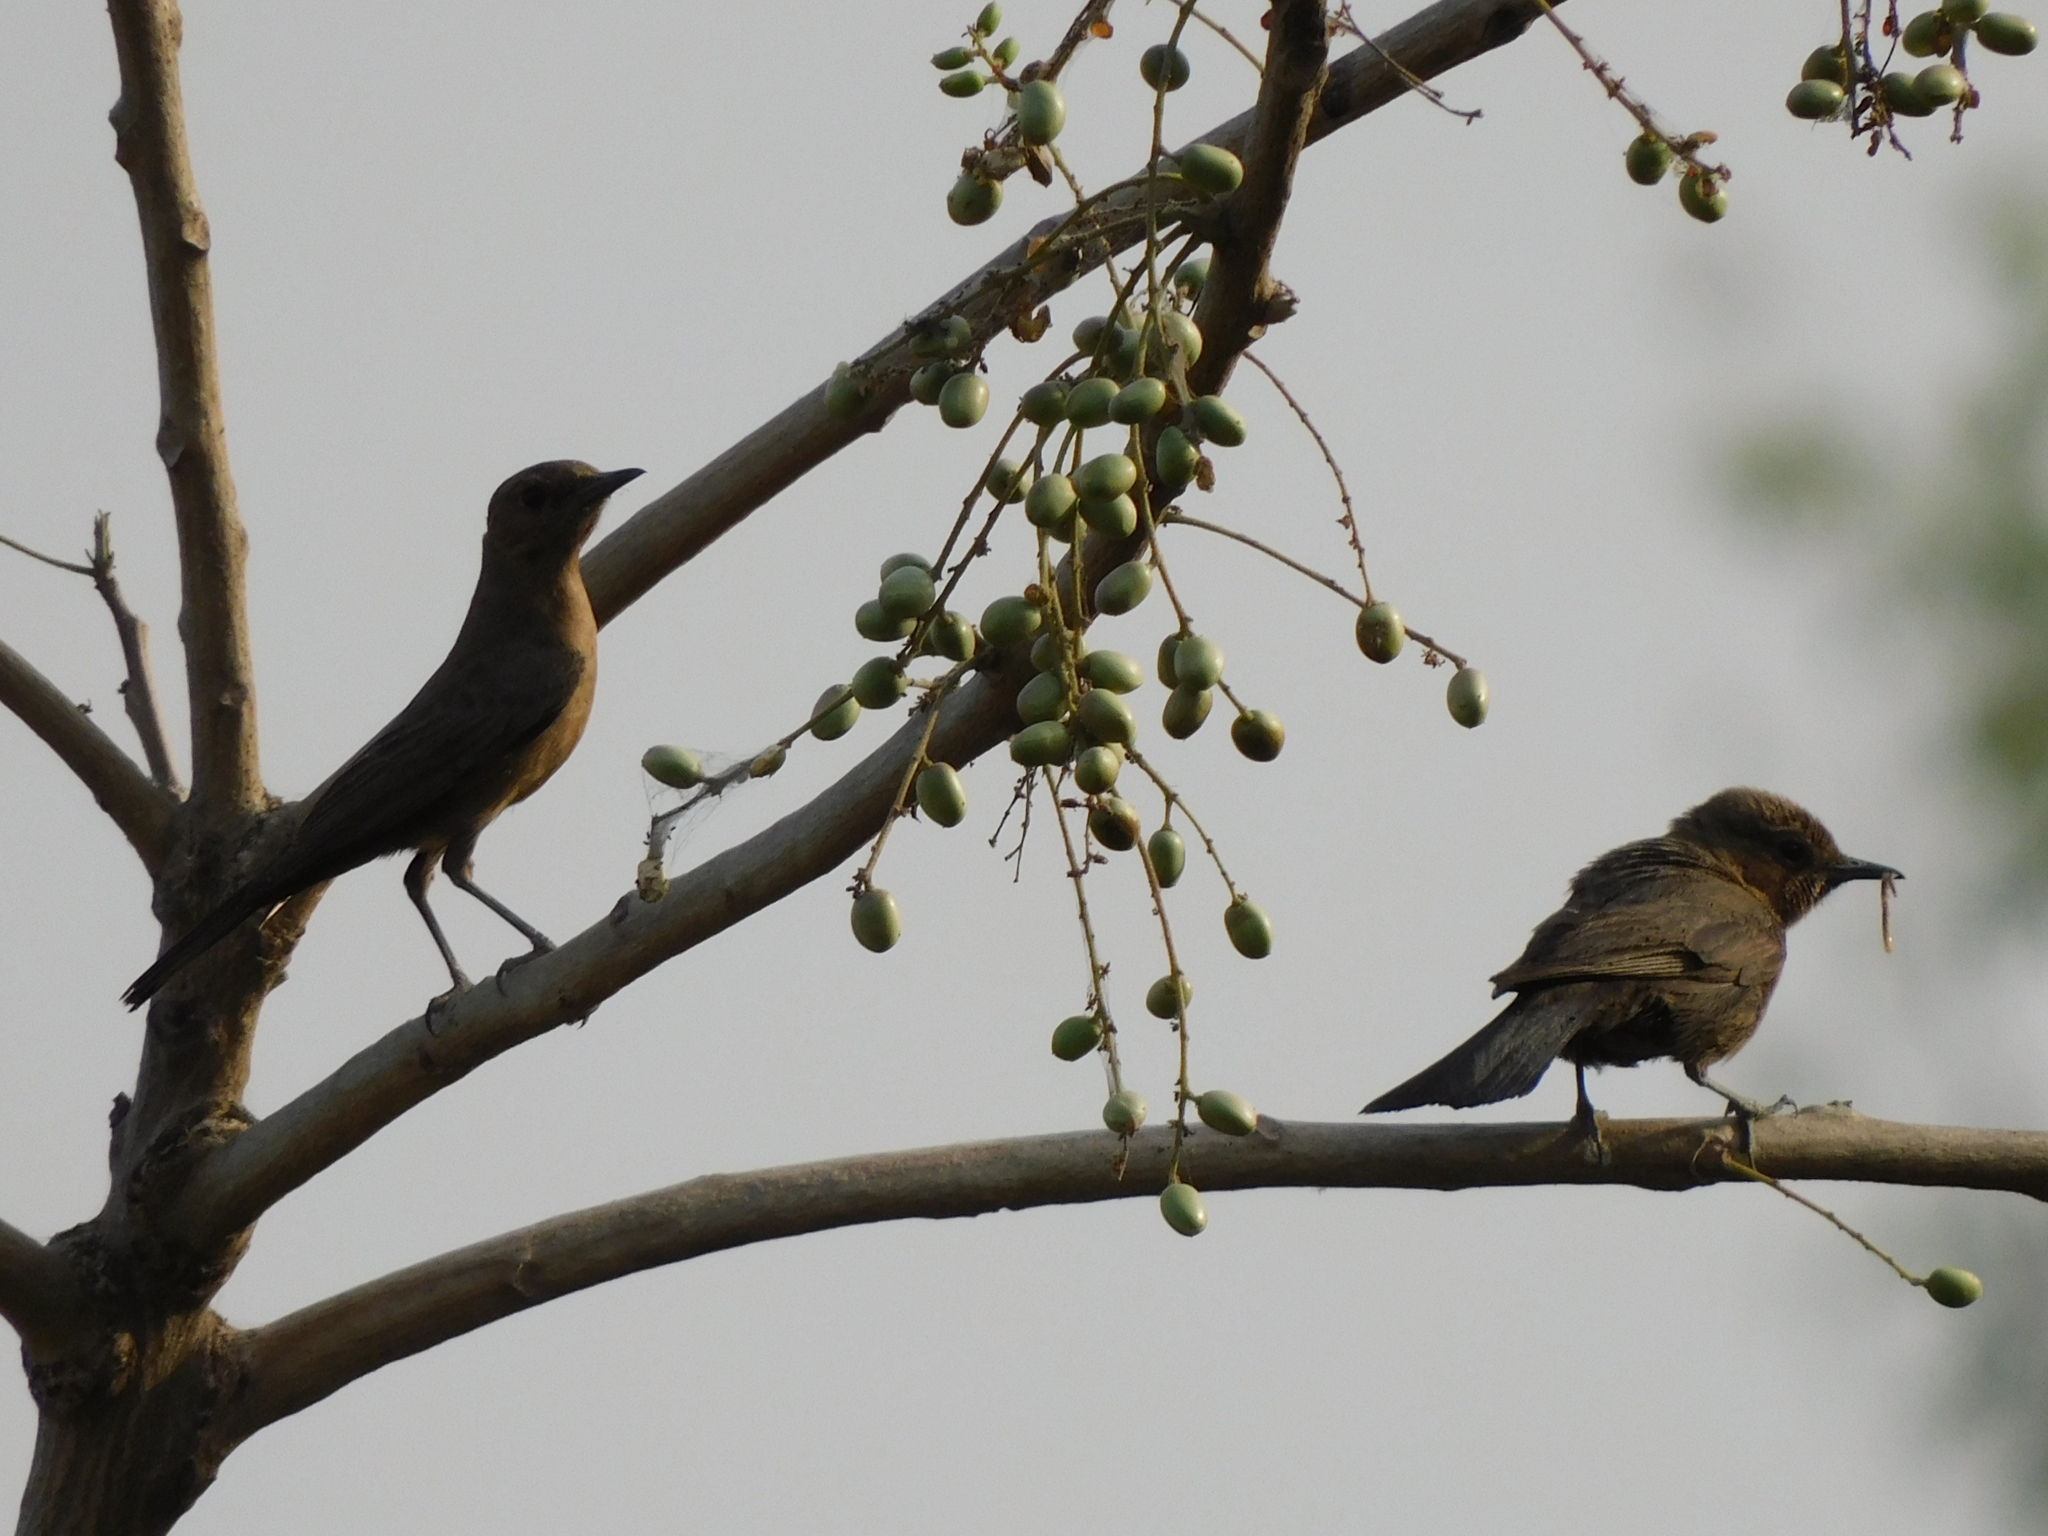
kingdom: Animalia
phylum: Chordata
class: Aves
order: Passeriformes
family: Muscicapidae
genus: Oenanthe
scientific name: Oenanthe fusca
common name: Brown rock chat
